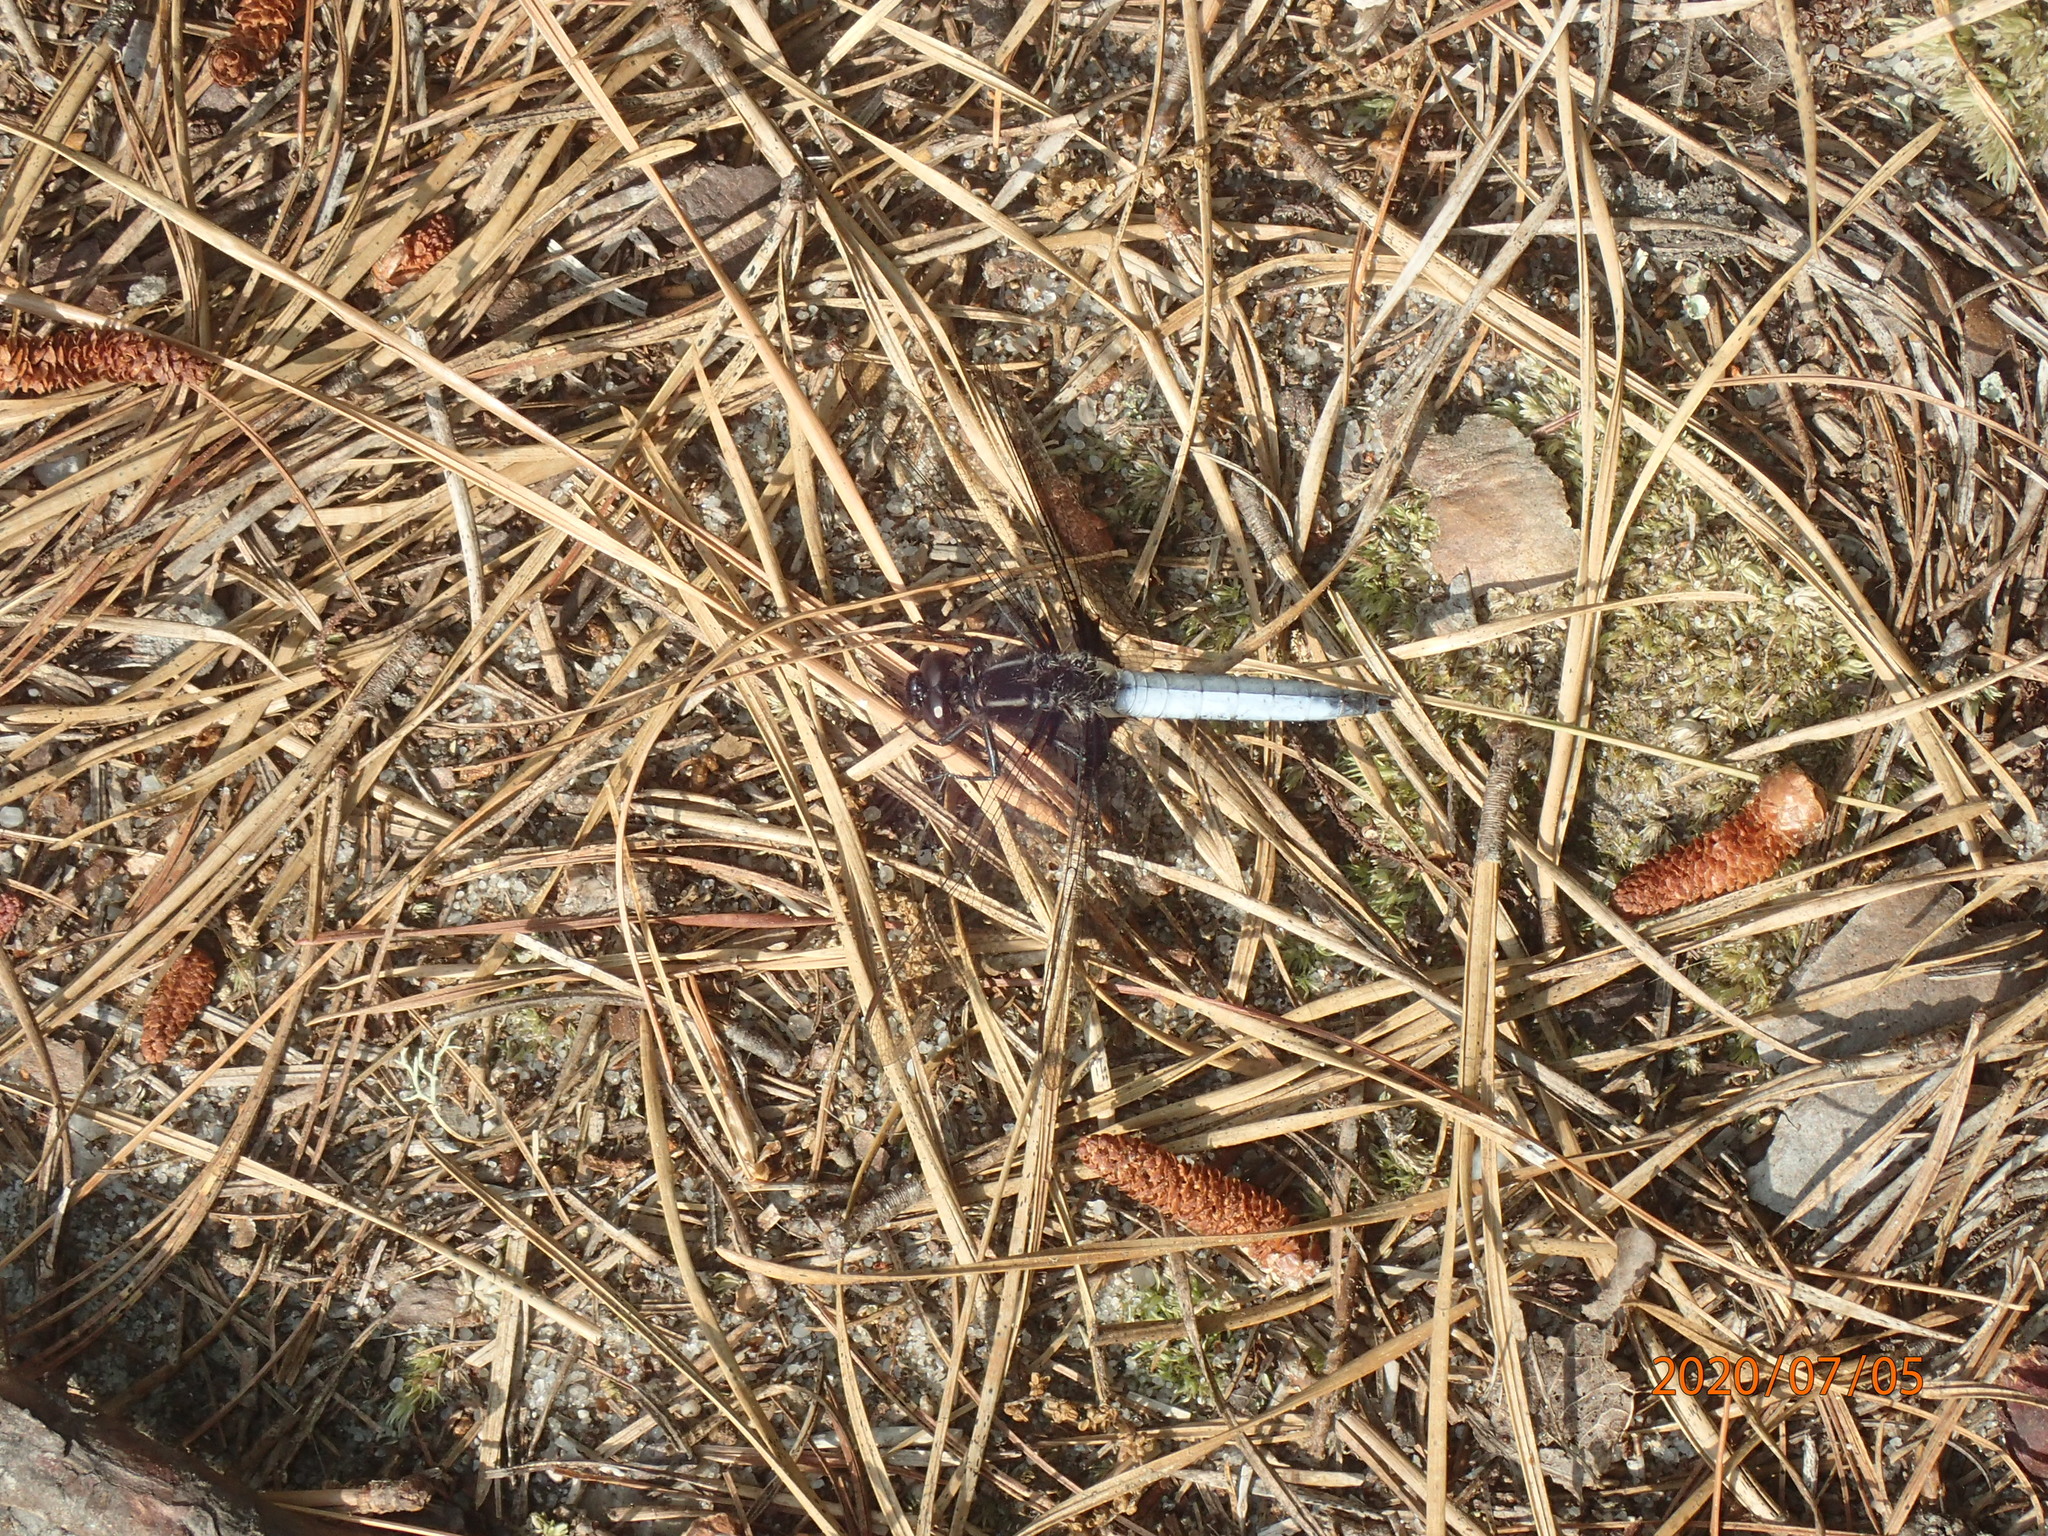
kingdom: Animalia
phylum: Arthropoda
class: Insecta
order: Odonata
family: Libellulidae
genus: Ladona
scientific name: Ladona exusta
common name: Libellule embrasée
